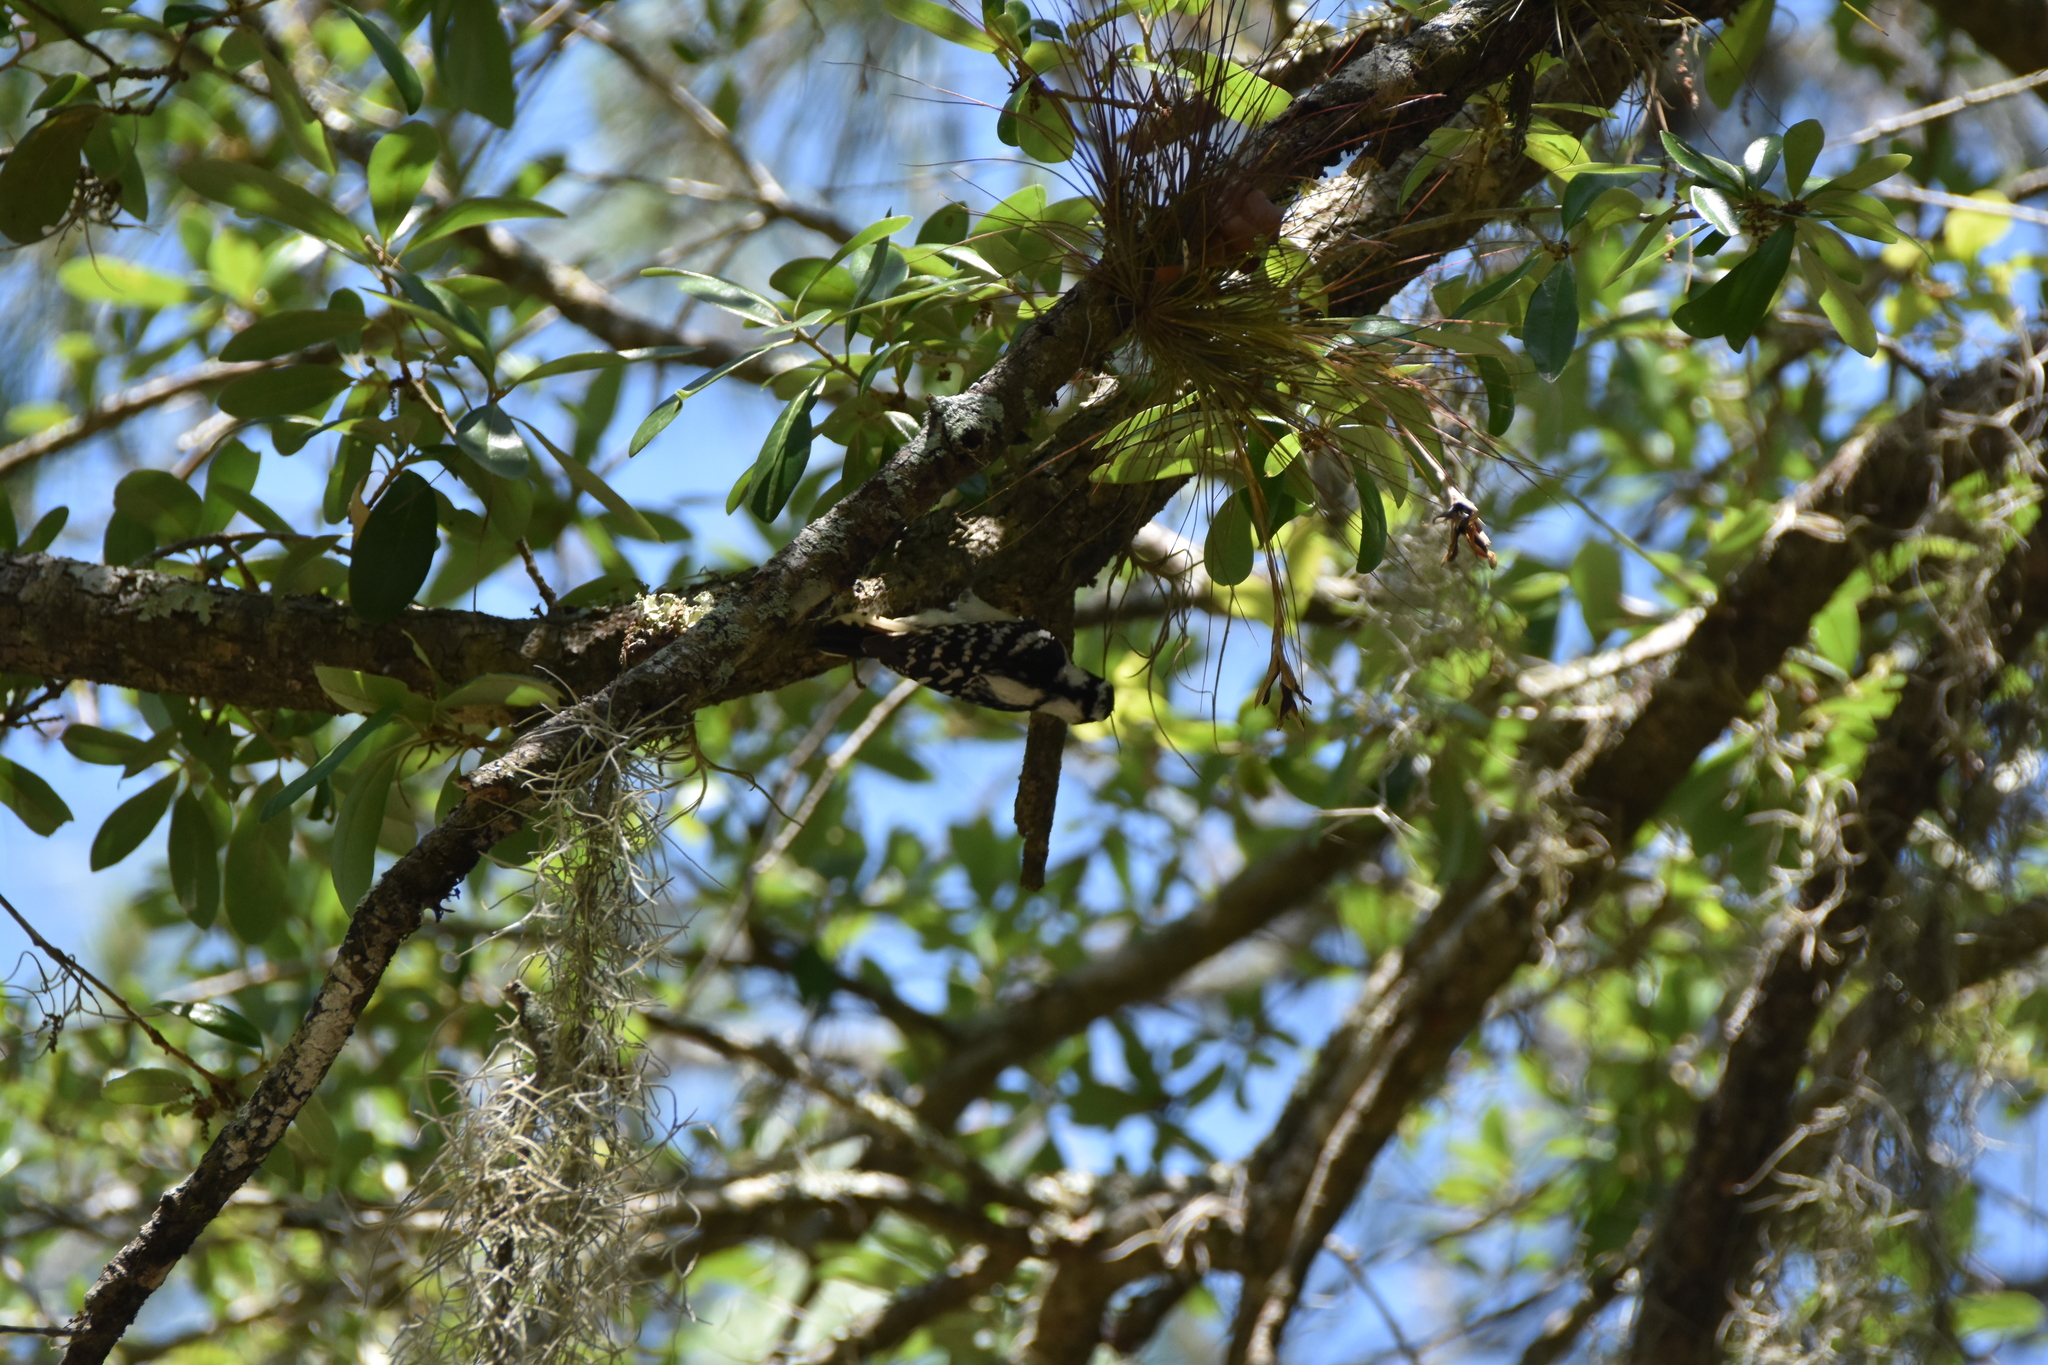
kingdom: Animalia
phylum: Chordata
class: Aves
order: Piciformes
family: Picidae
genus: Dryobates
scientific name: Dryobates pubescens
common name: Downy woodpecker
